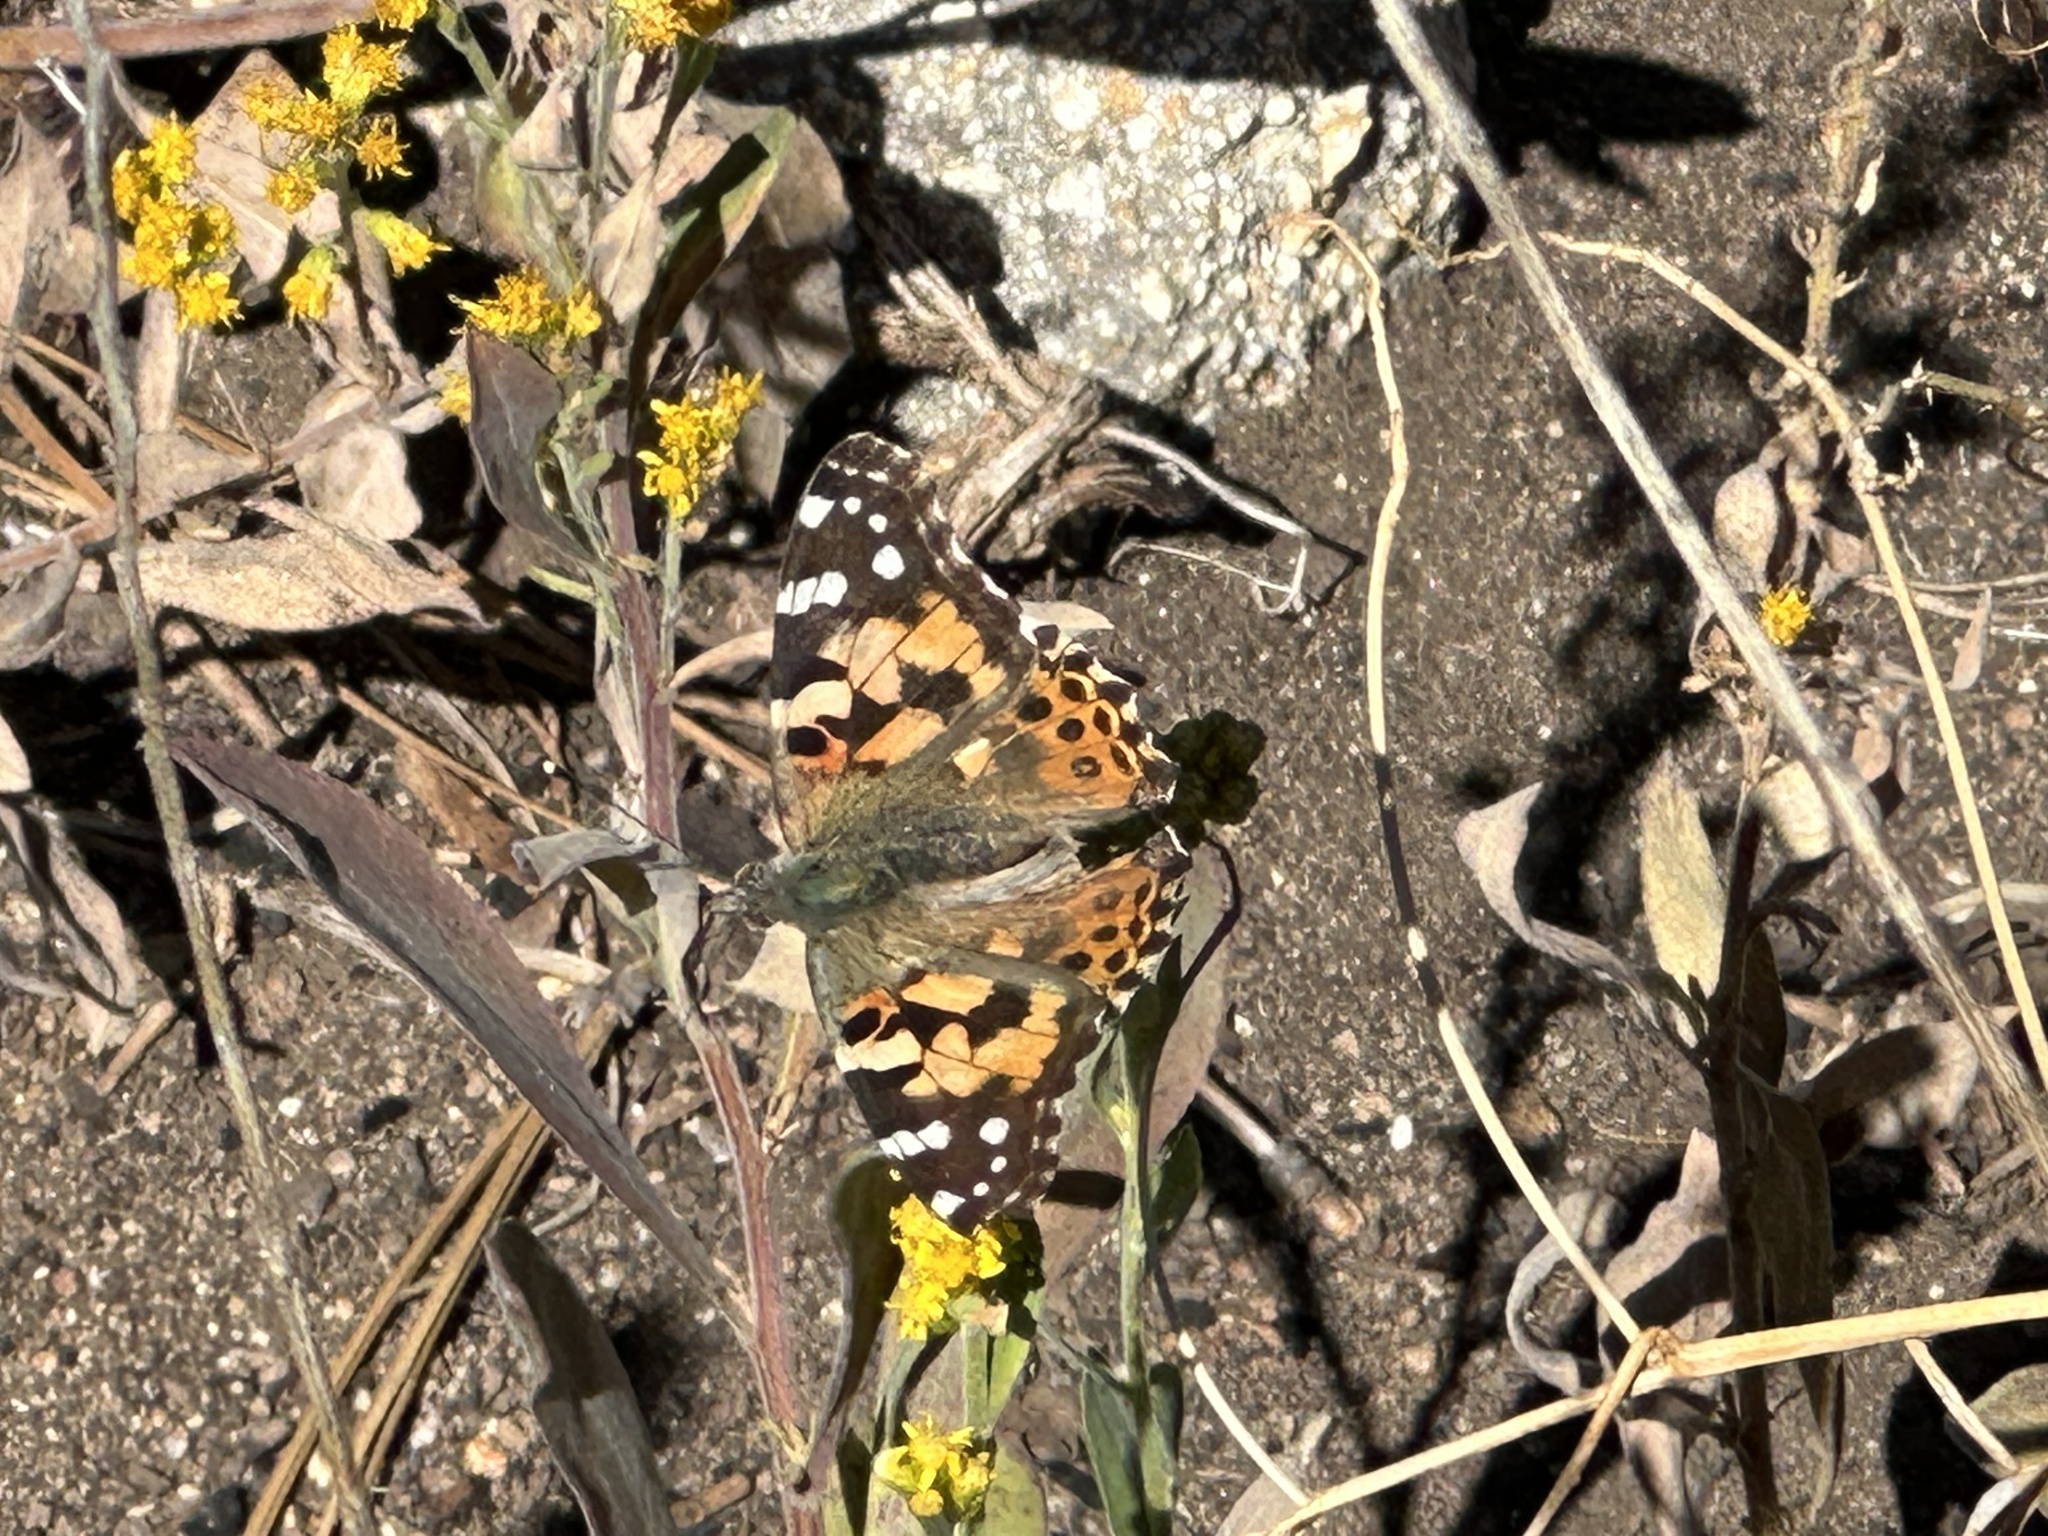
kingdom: Animalia
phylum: Arthropoda
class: Insecta
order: Lepidoptera
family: Nymphalidae
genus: Vanessa
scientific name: Vanessa cardui
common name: Painted lady
